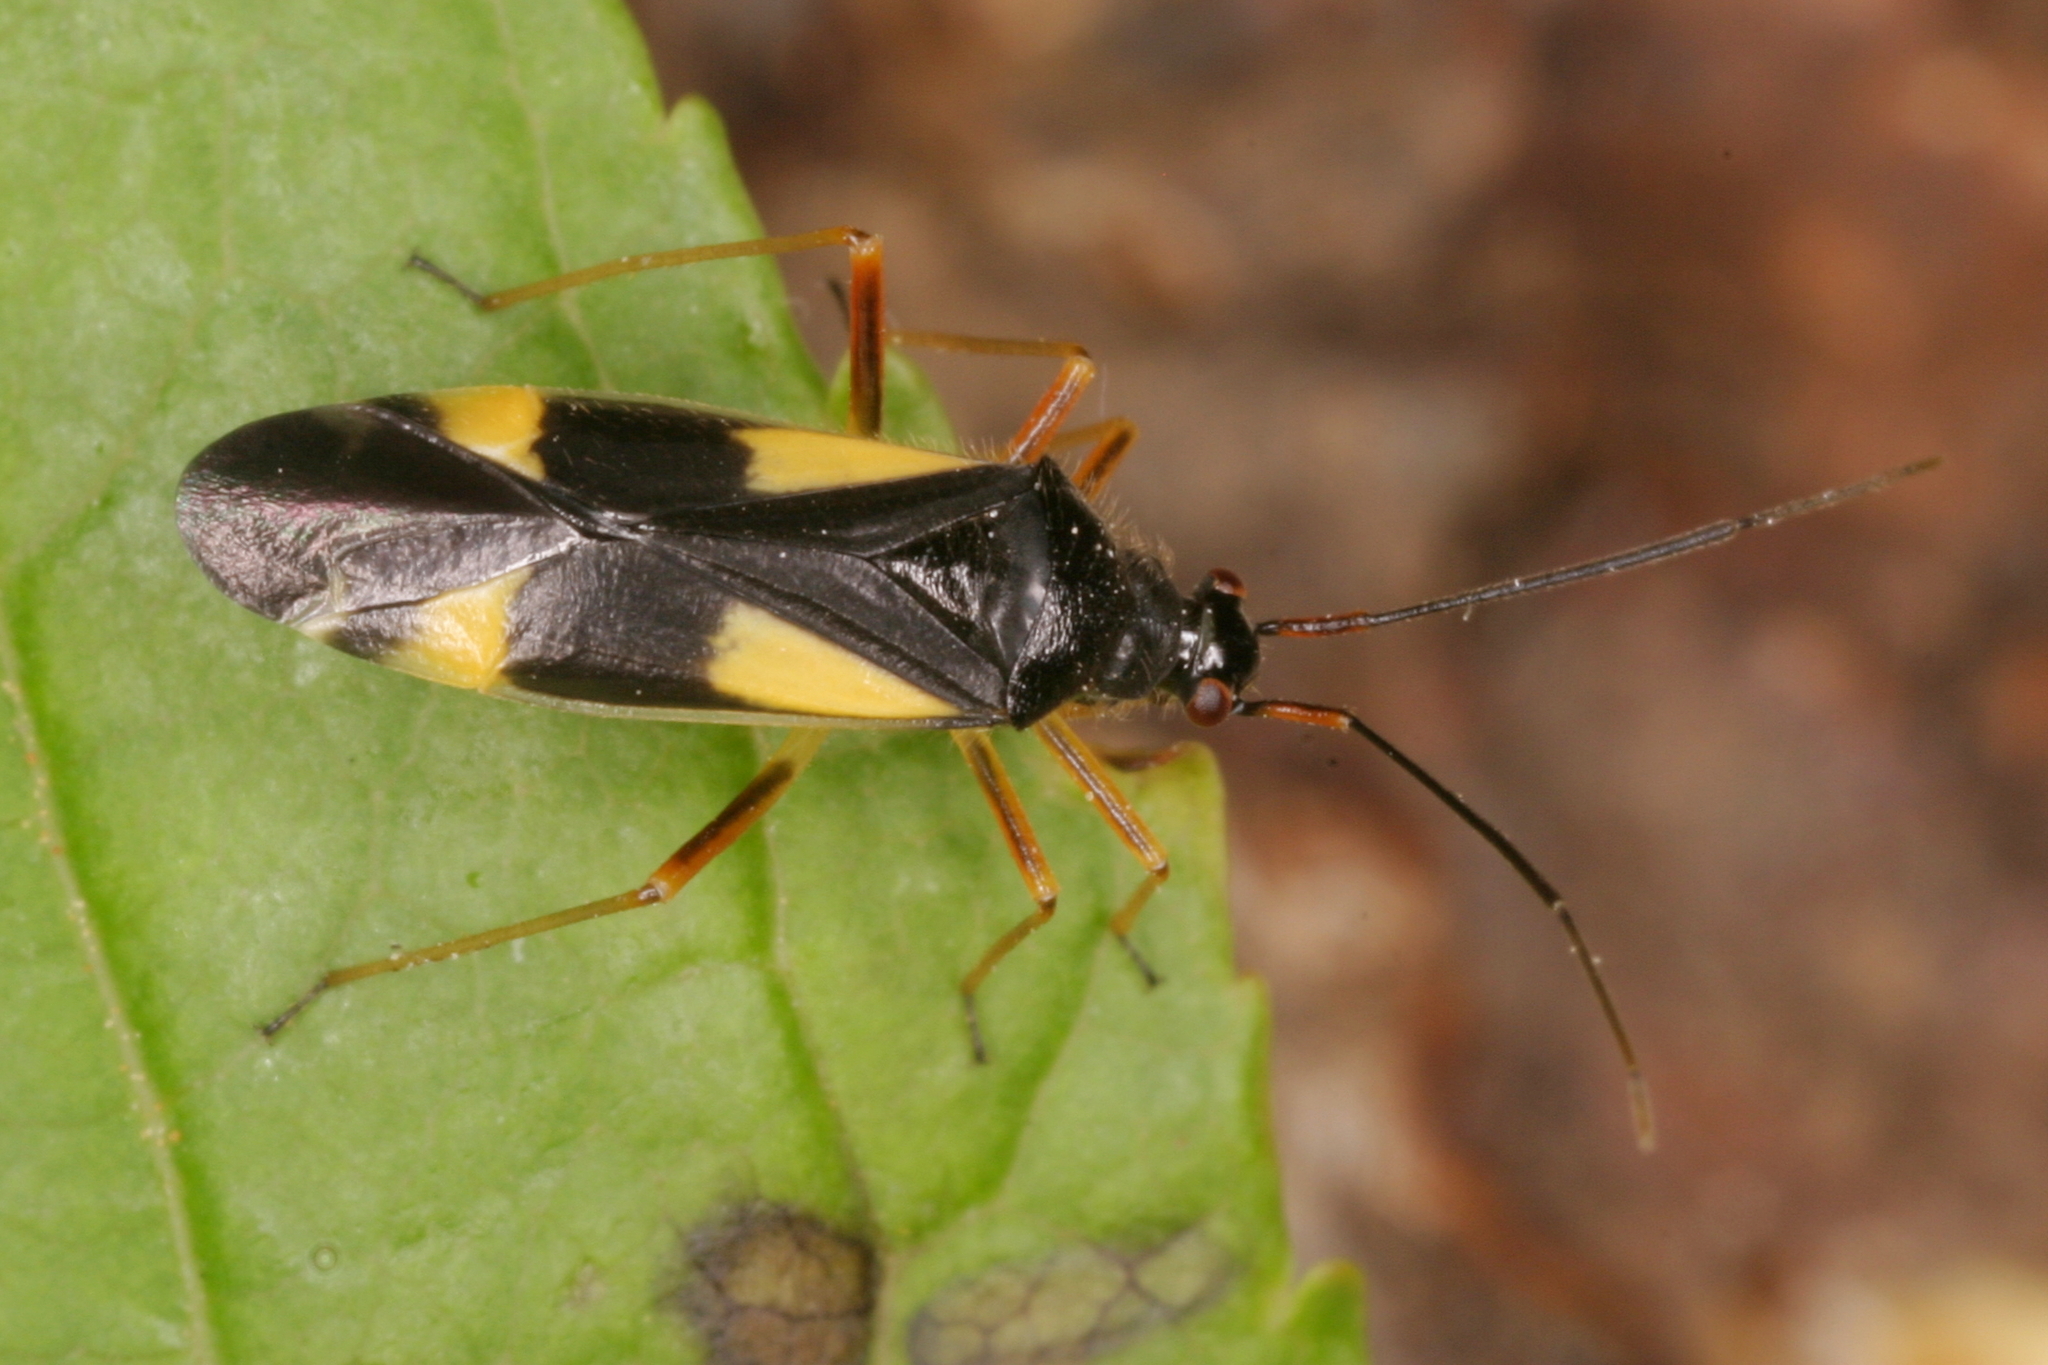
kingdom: Animalia
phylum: Arthropoda
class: Insecta
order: Hemiptera
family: Miridae
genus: Dryophilocoris
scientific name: Dryophilocoris flavoquadrimaculatus
